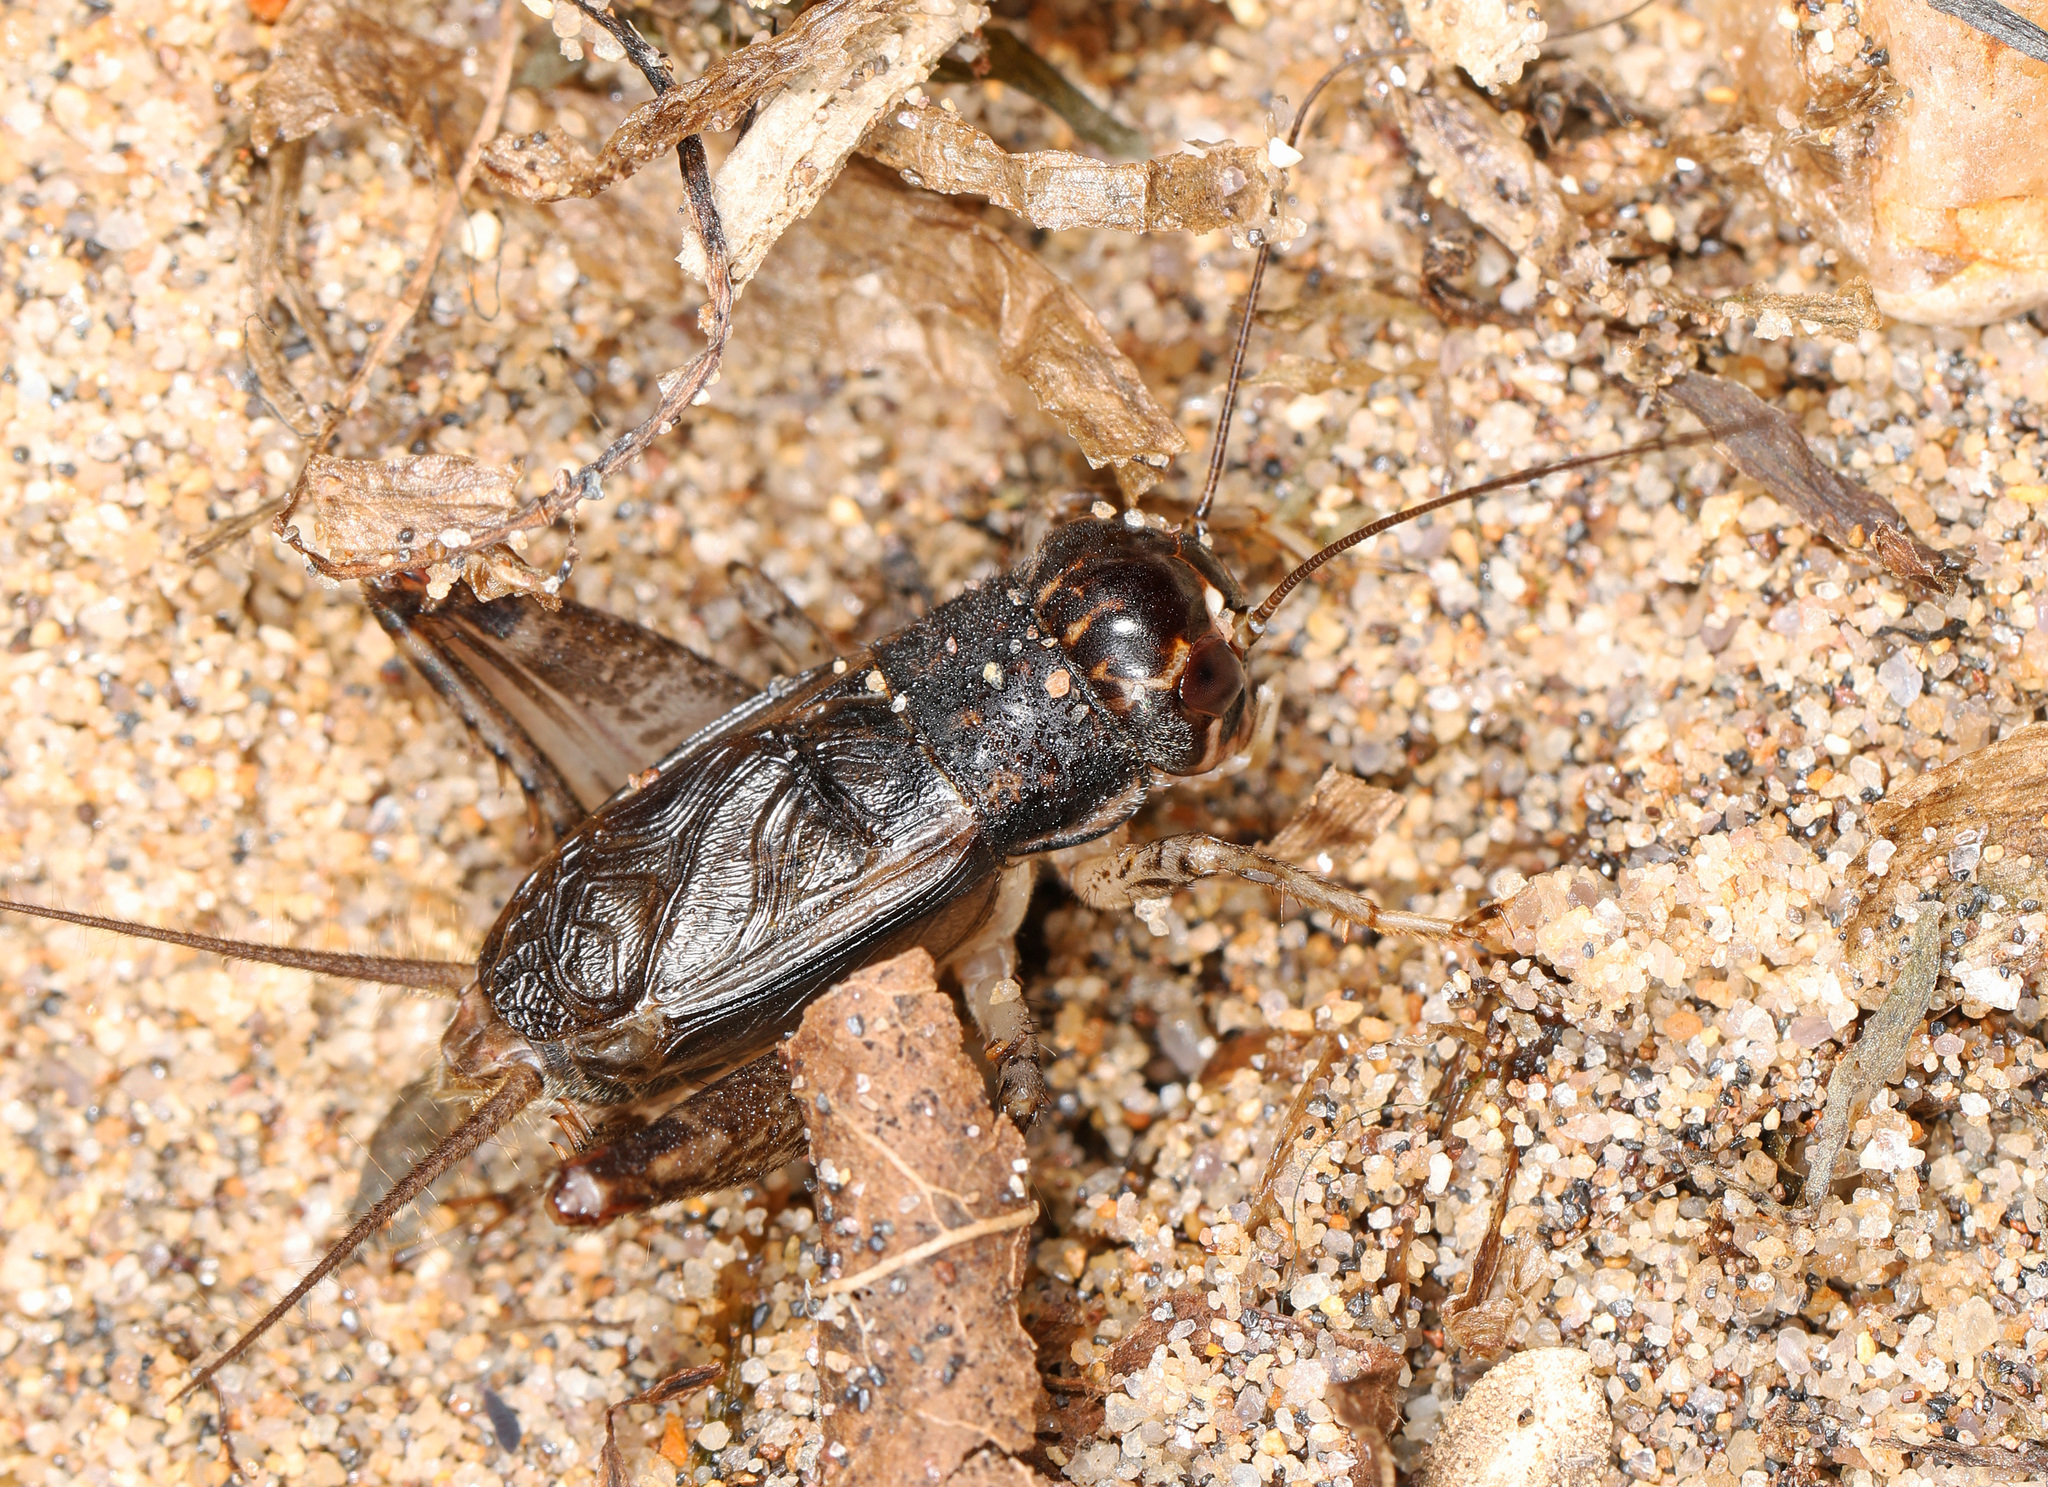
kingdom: Animalia
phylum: Arthropoda
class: Insecta
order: Orthoptera
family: Gryllidae
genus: Velarifictorus
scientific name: Velarifictorus micado
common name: Japanese burrowing cricket
